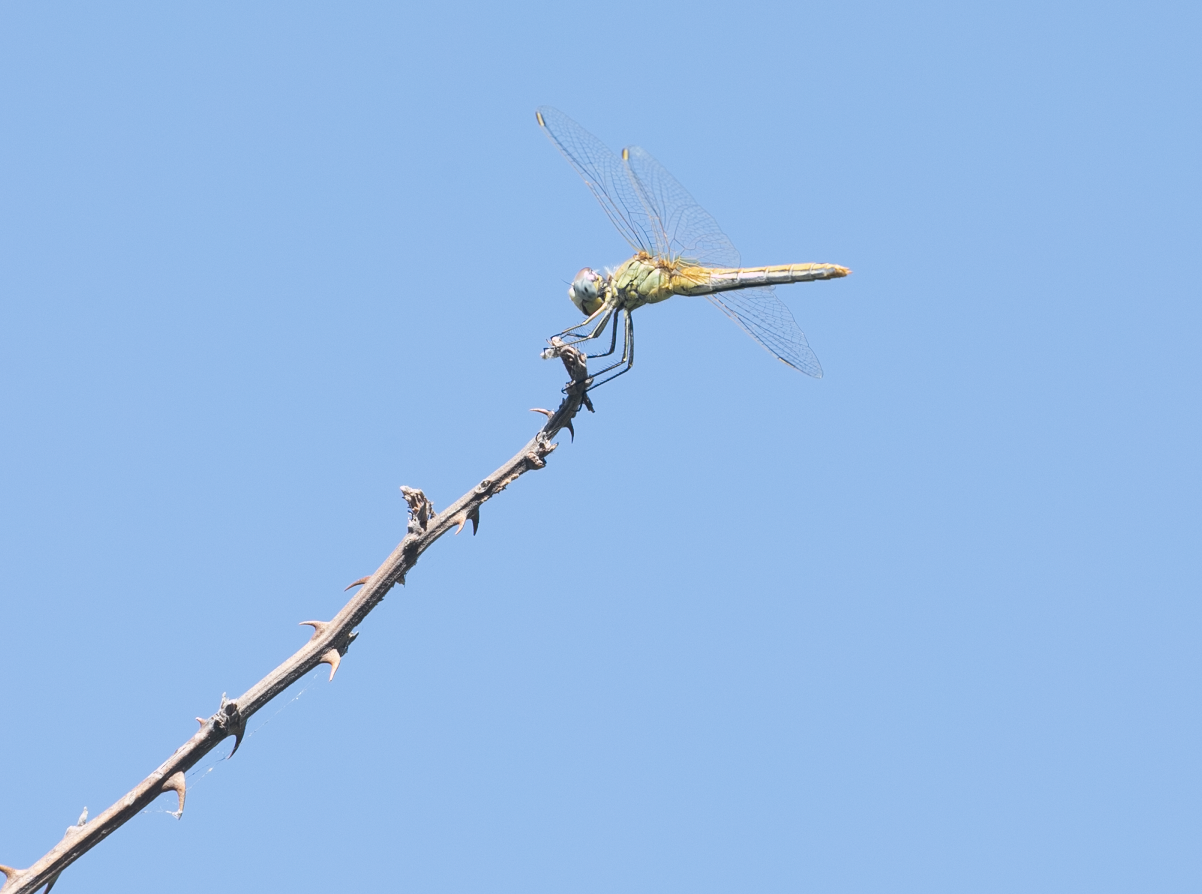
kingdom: Animalia
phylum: Arthropoda
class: Insecta
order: Odonata
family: Libellulidae
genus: Sympetrum
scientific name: Sympetrum fonscolombii
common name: Red-veined darter
